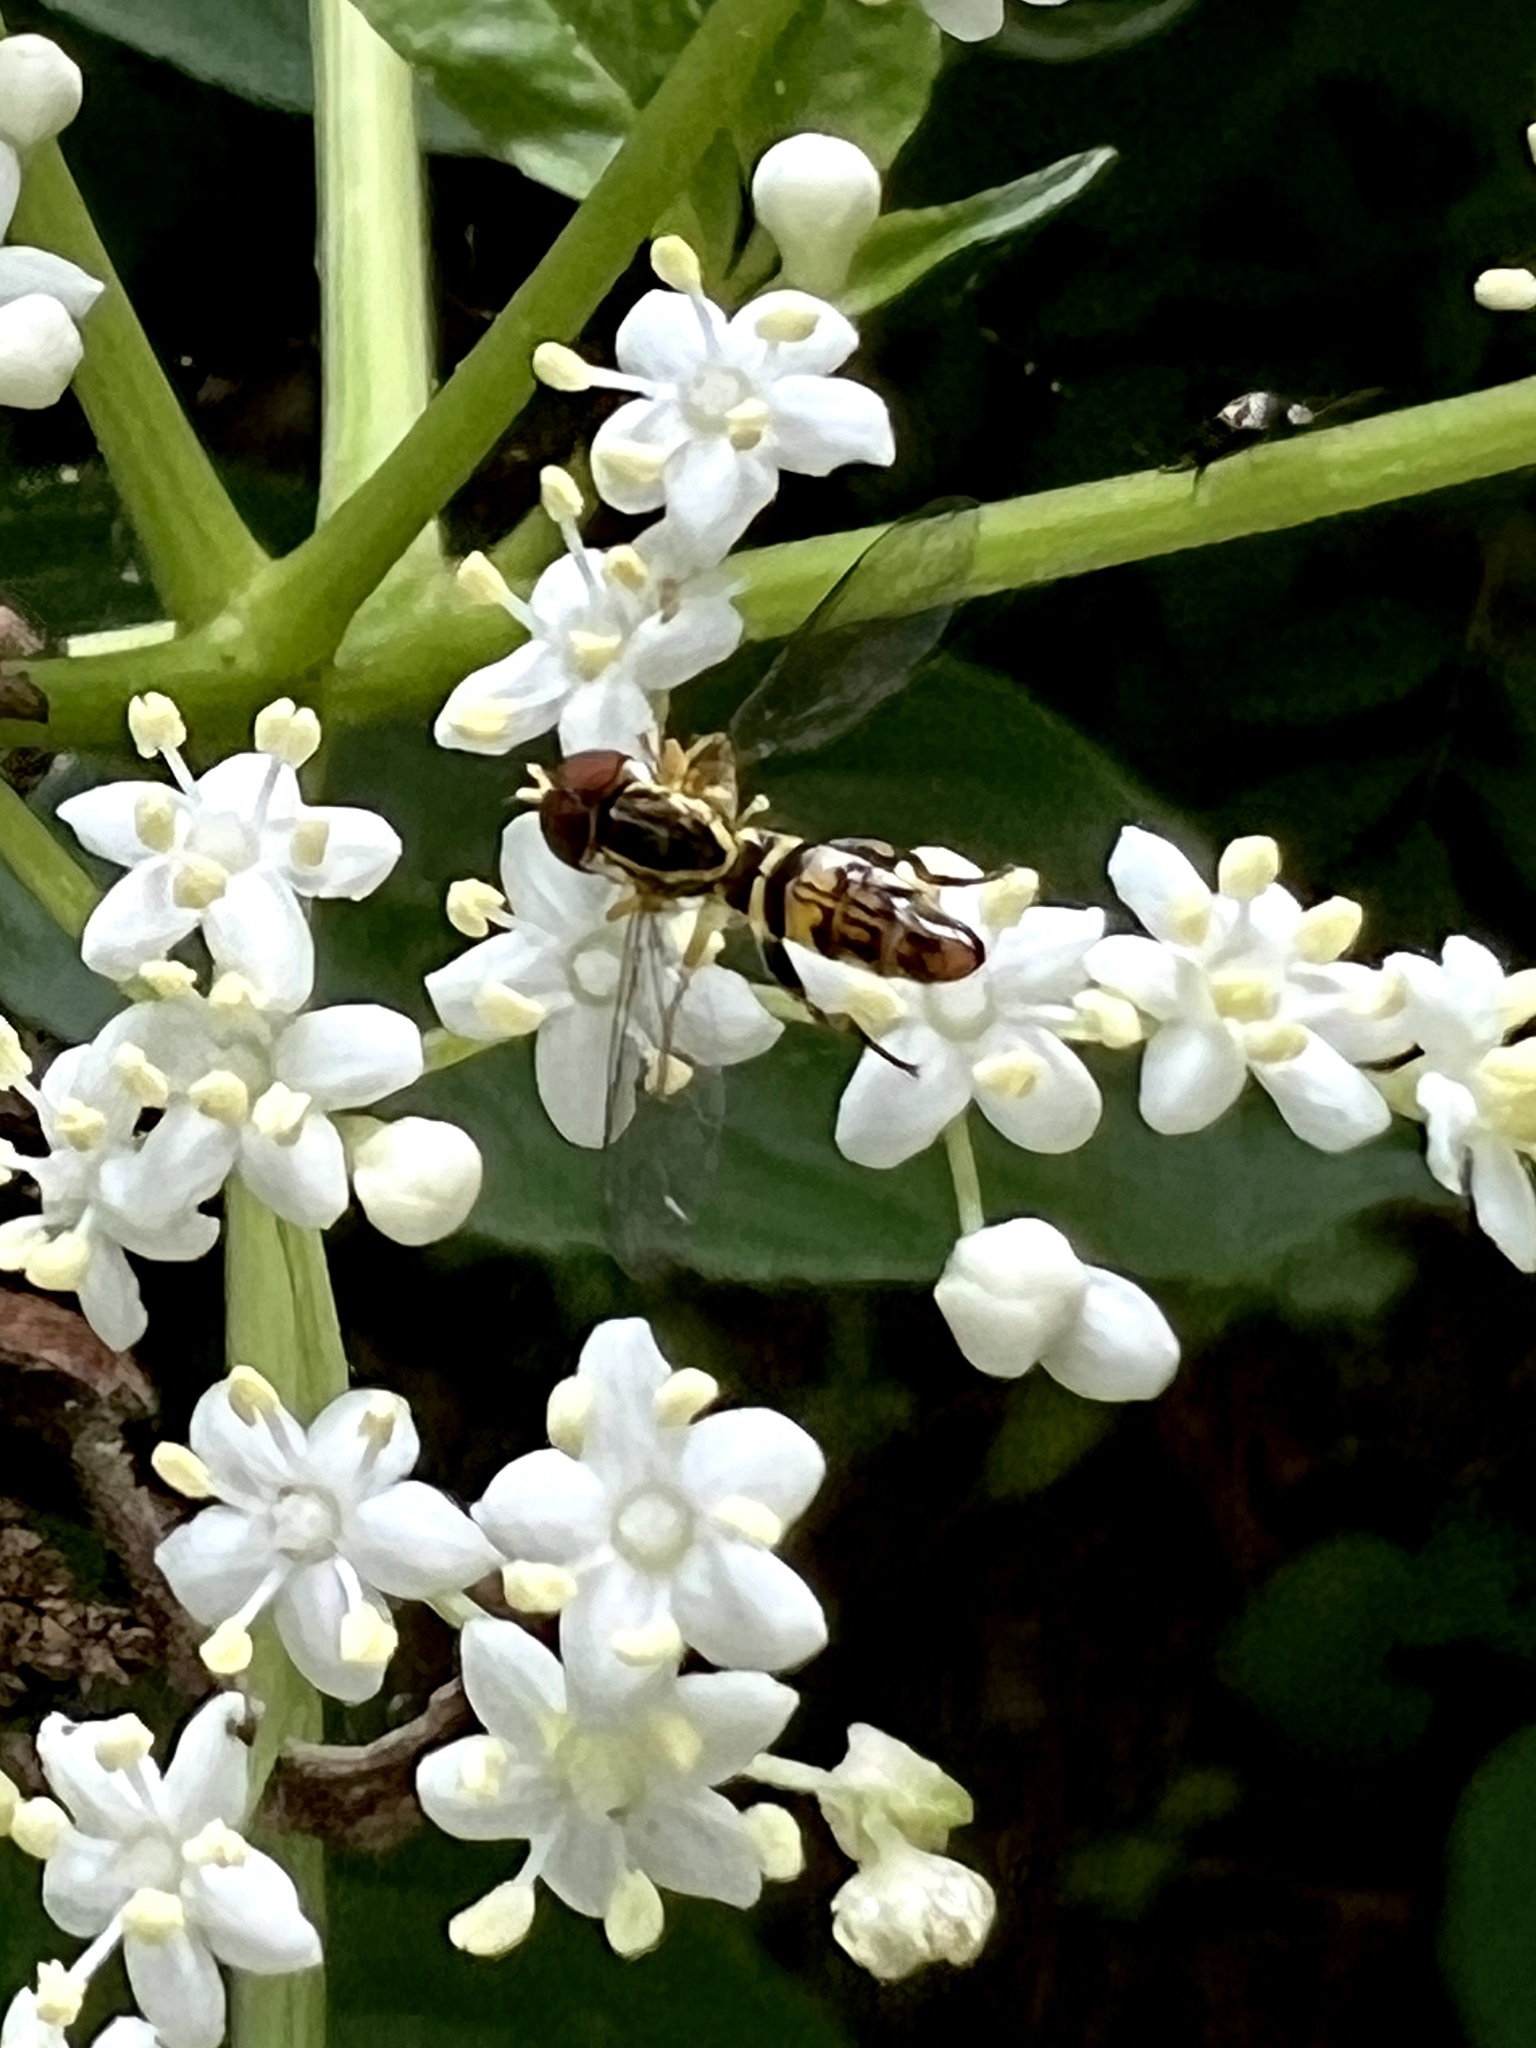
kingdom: Animalia
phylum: Arthropoda
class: Insecta
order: Diptera
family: Syrphidae
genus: Toxomerus
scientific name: Toxomerus geminatus
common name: Eastern calligrapher
